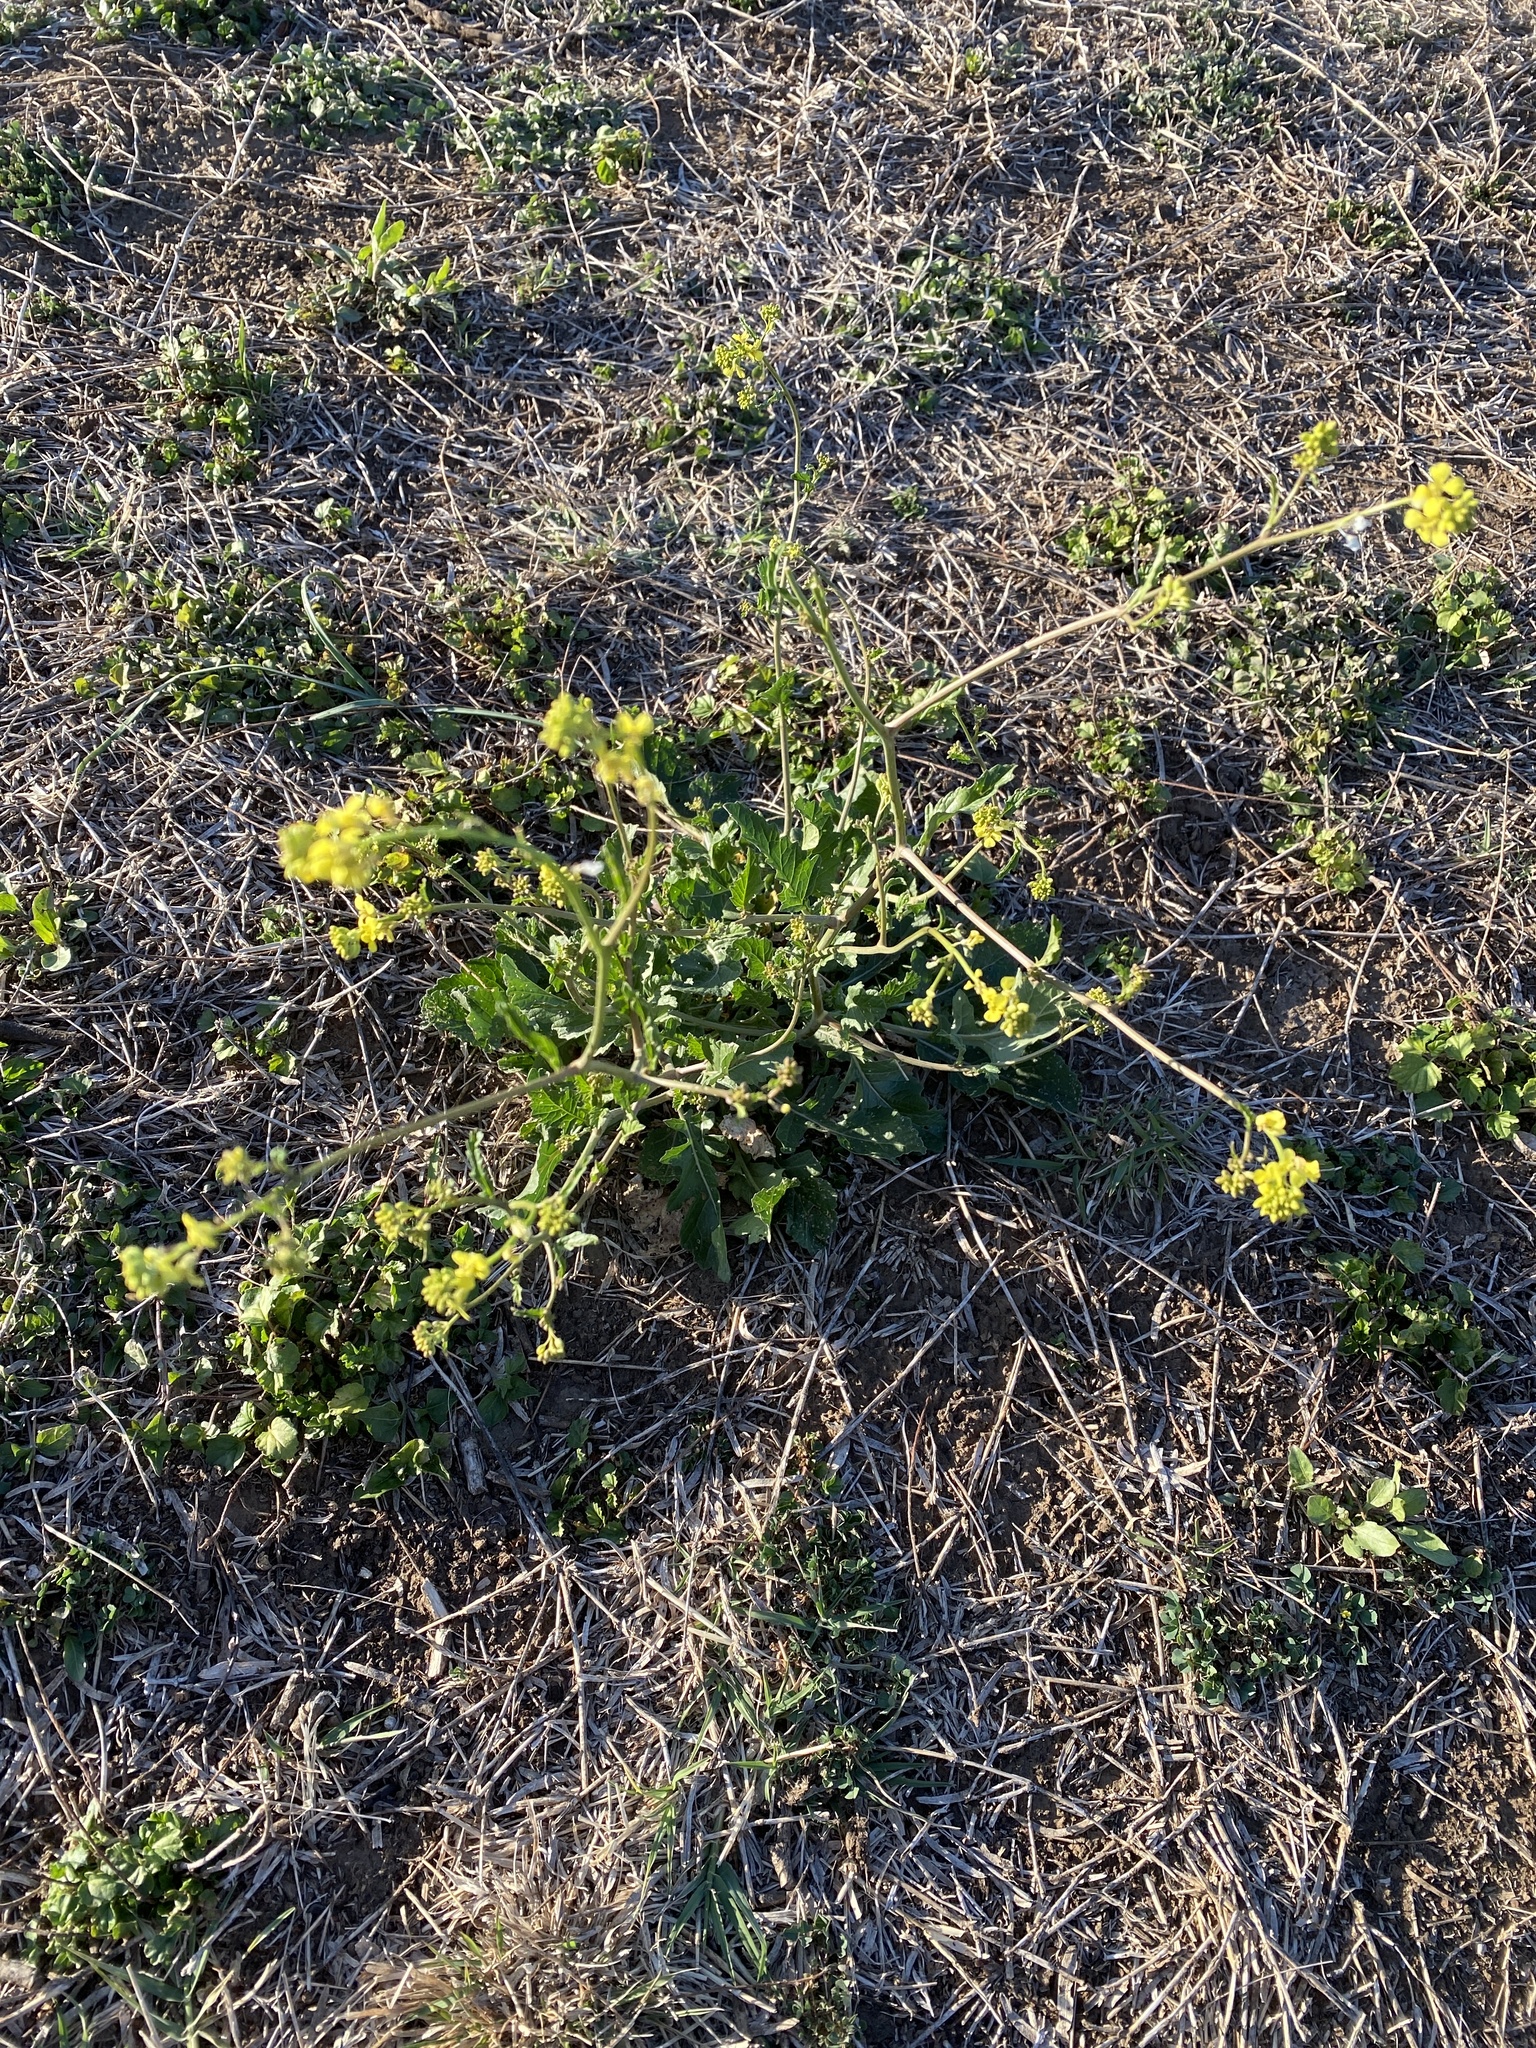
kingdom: Plantae
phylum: Tracheophyta
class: Magnoliopsida
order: Brassicales
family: Brassicaceae
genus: Rapistrum
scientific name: Rapistrum rugosum
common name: Annual bastardcabbage
